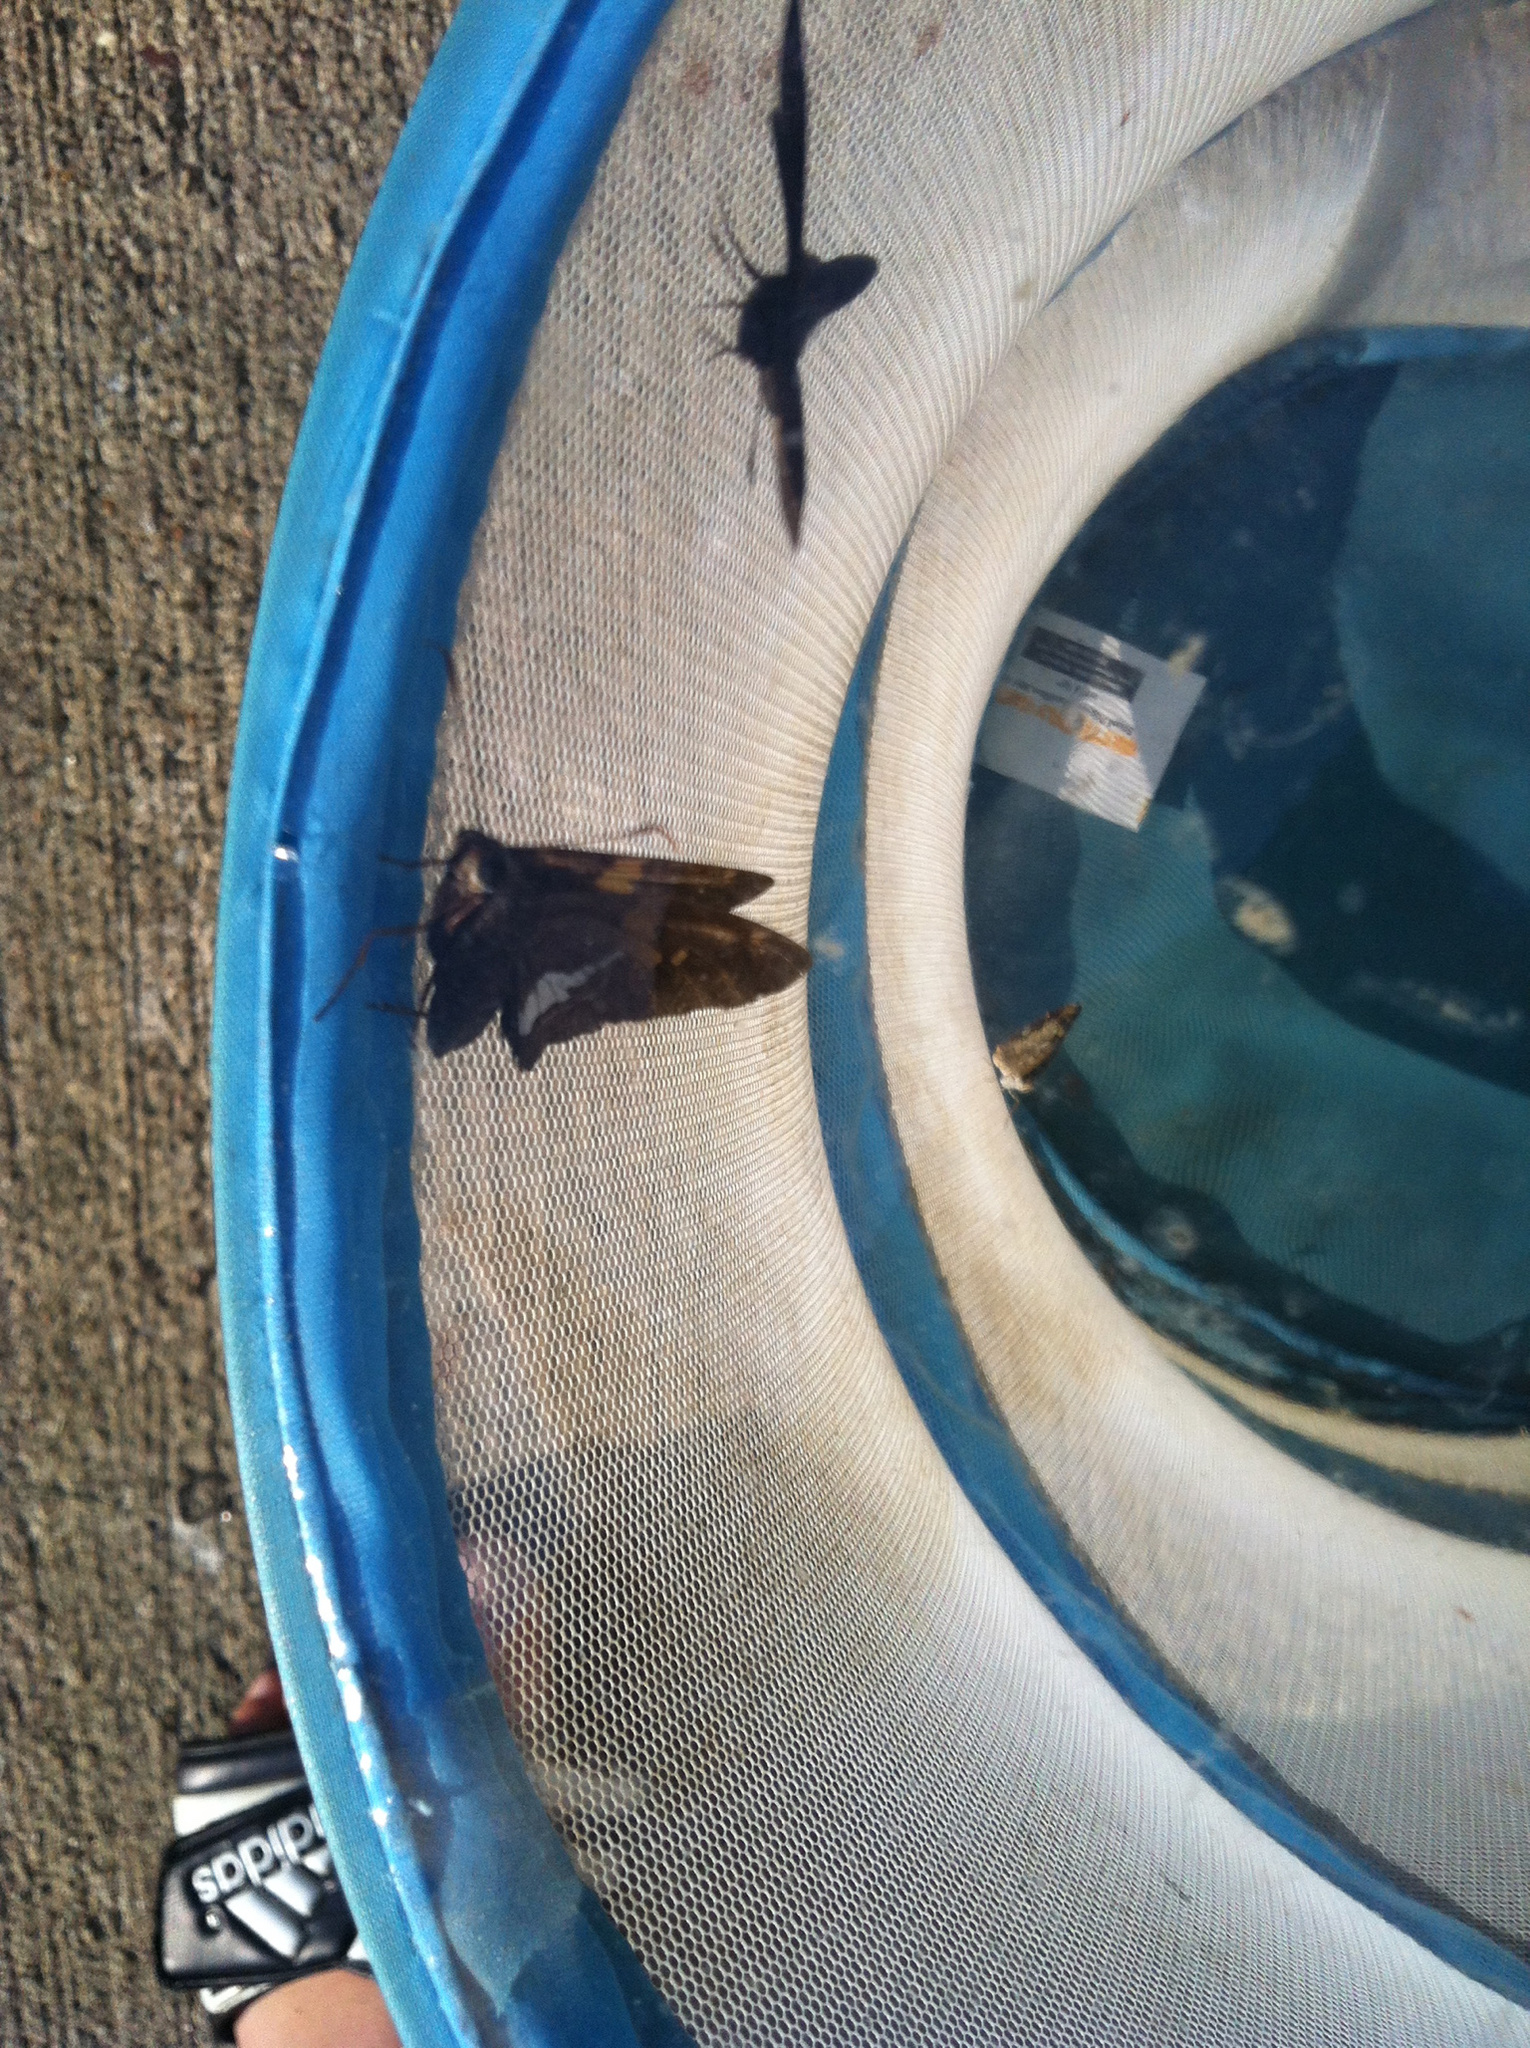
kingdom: Animalia
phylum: Arthropoda
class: Insecta
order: Lepidoptera
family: Hesperiidae
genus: Epargyreus
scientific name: Epargyreus clarus
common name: Silver-spotted skipper
